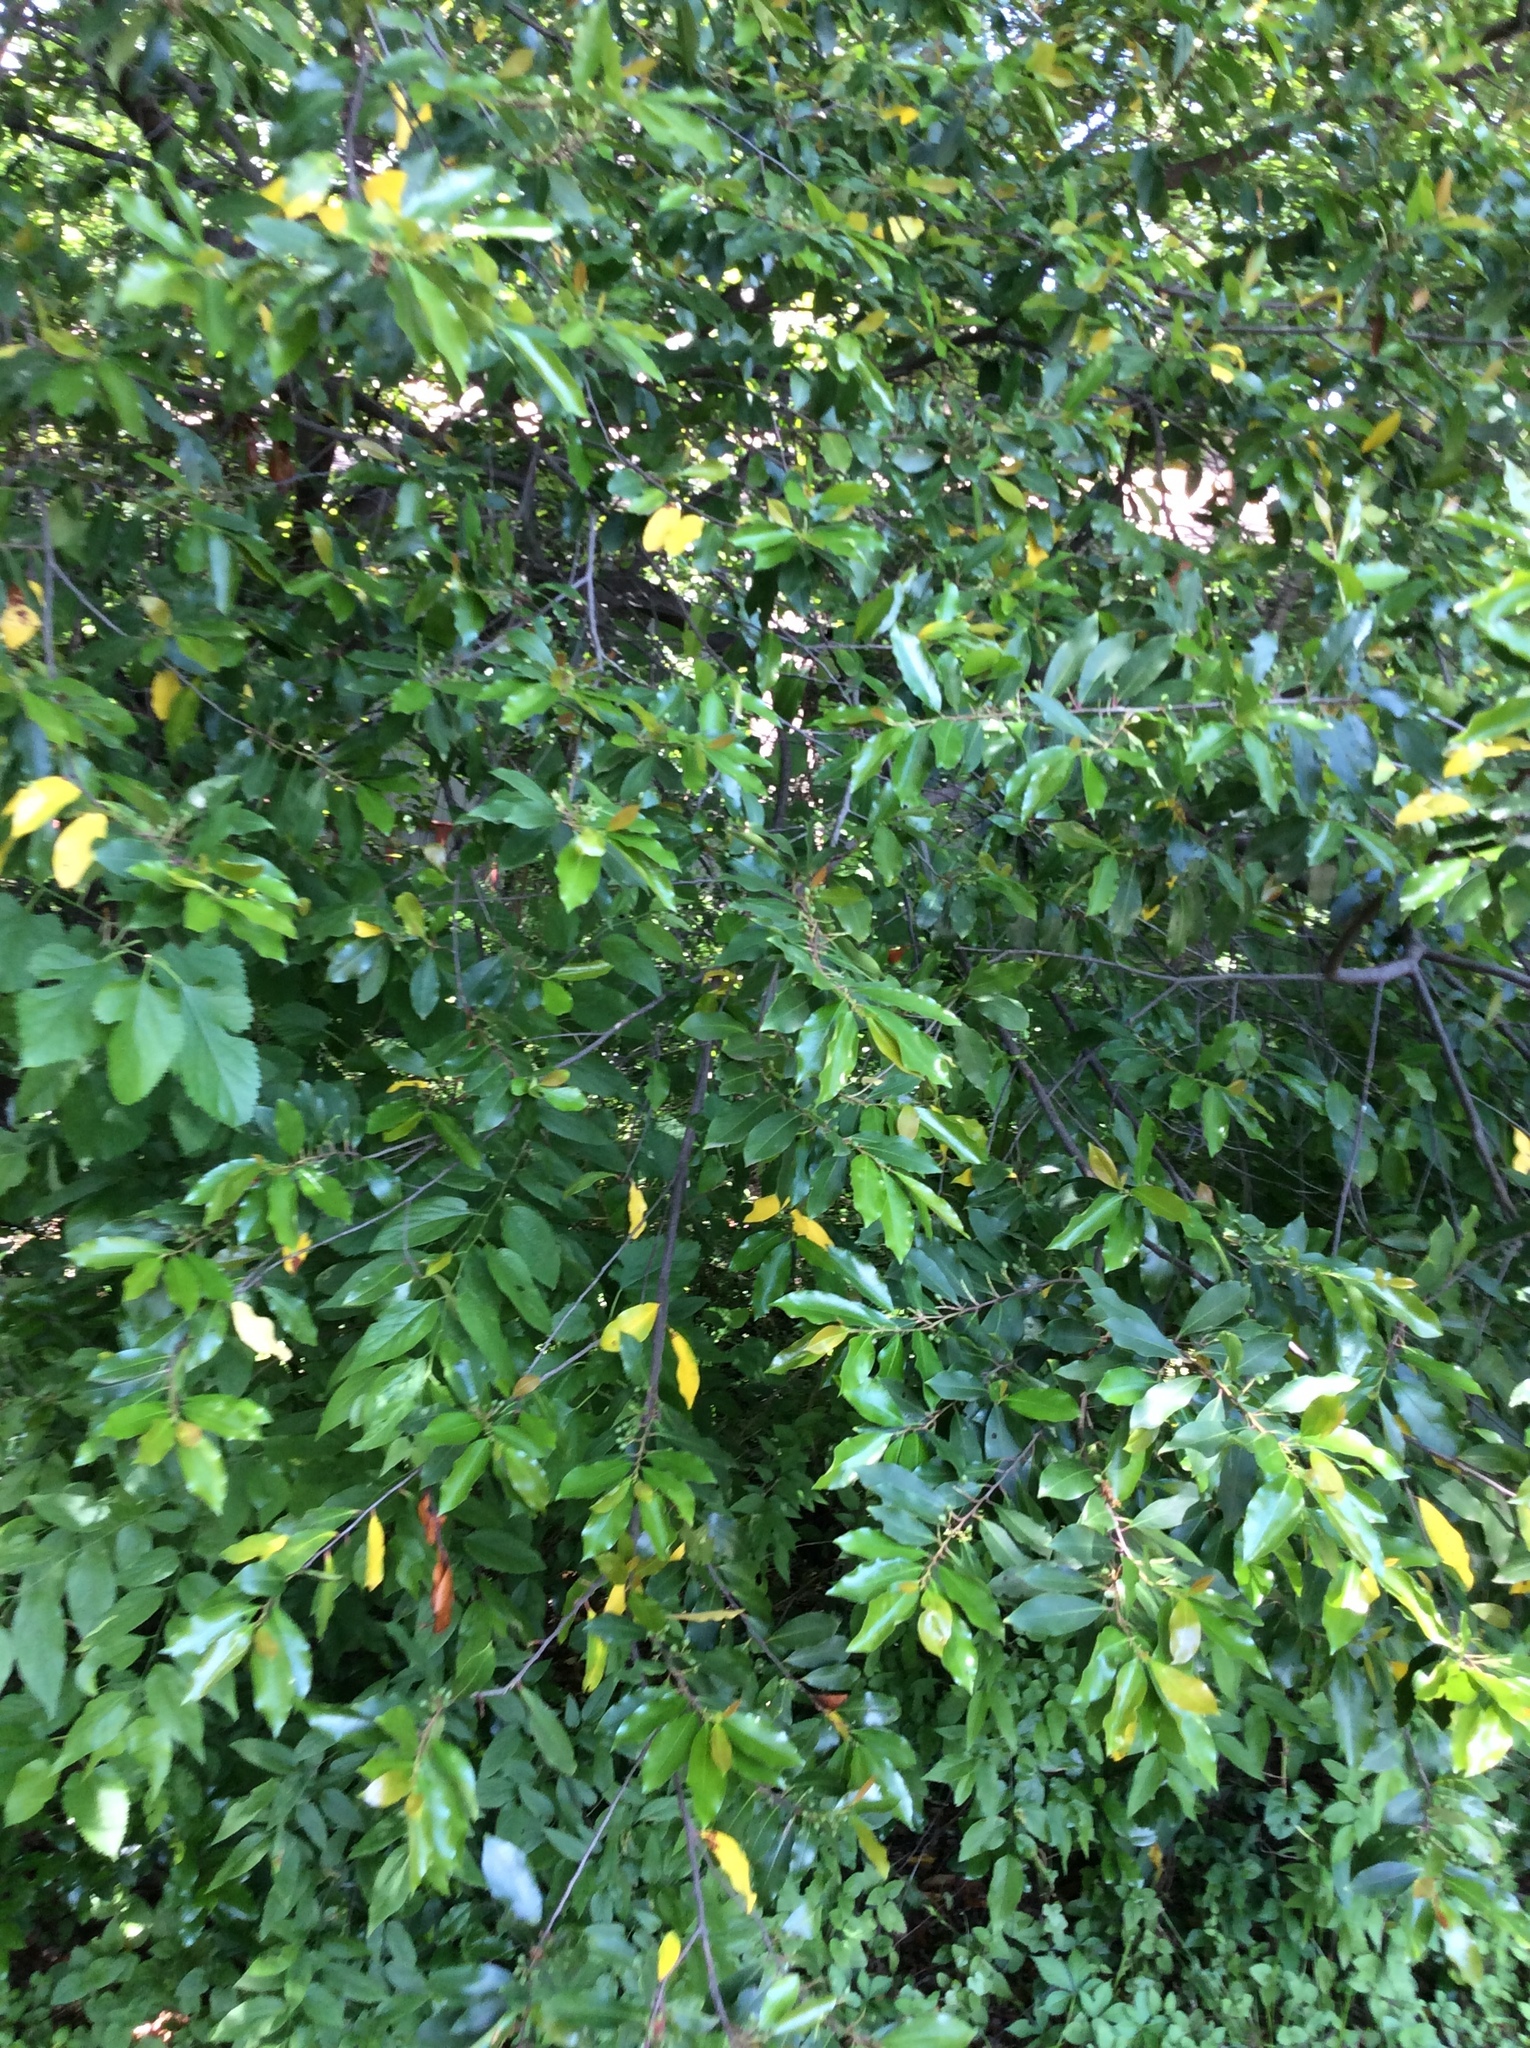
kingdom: Plantae
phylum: Tracheophyta
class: Magnoliopsida
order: Rosales
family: Rosaceae
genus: Prunus
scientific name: Prunus caroliniana
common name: Carolina laurel cherry
